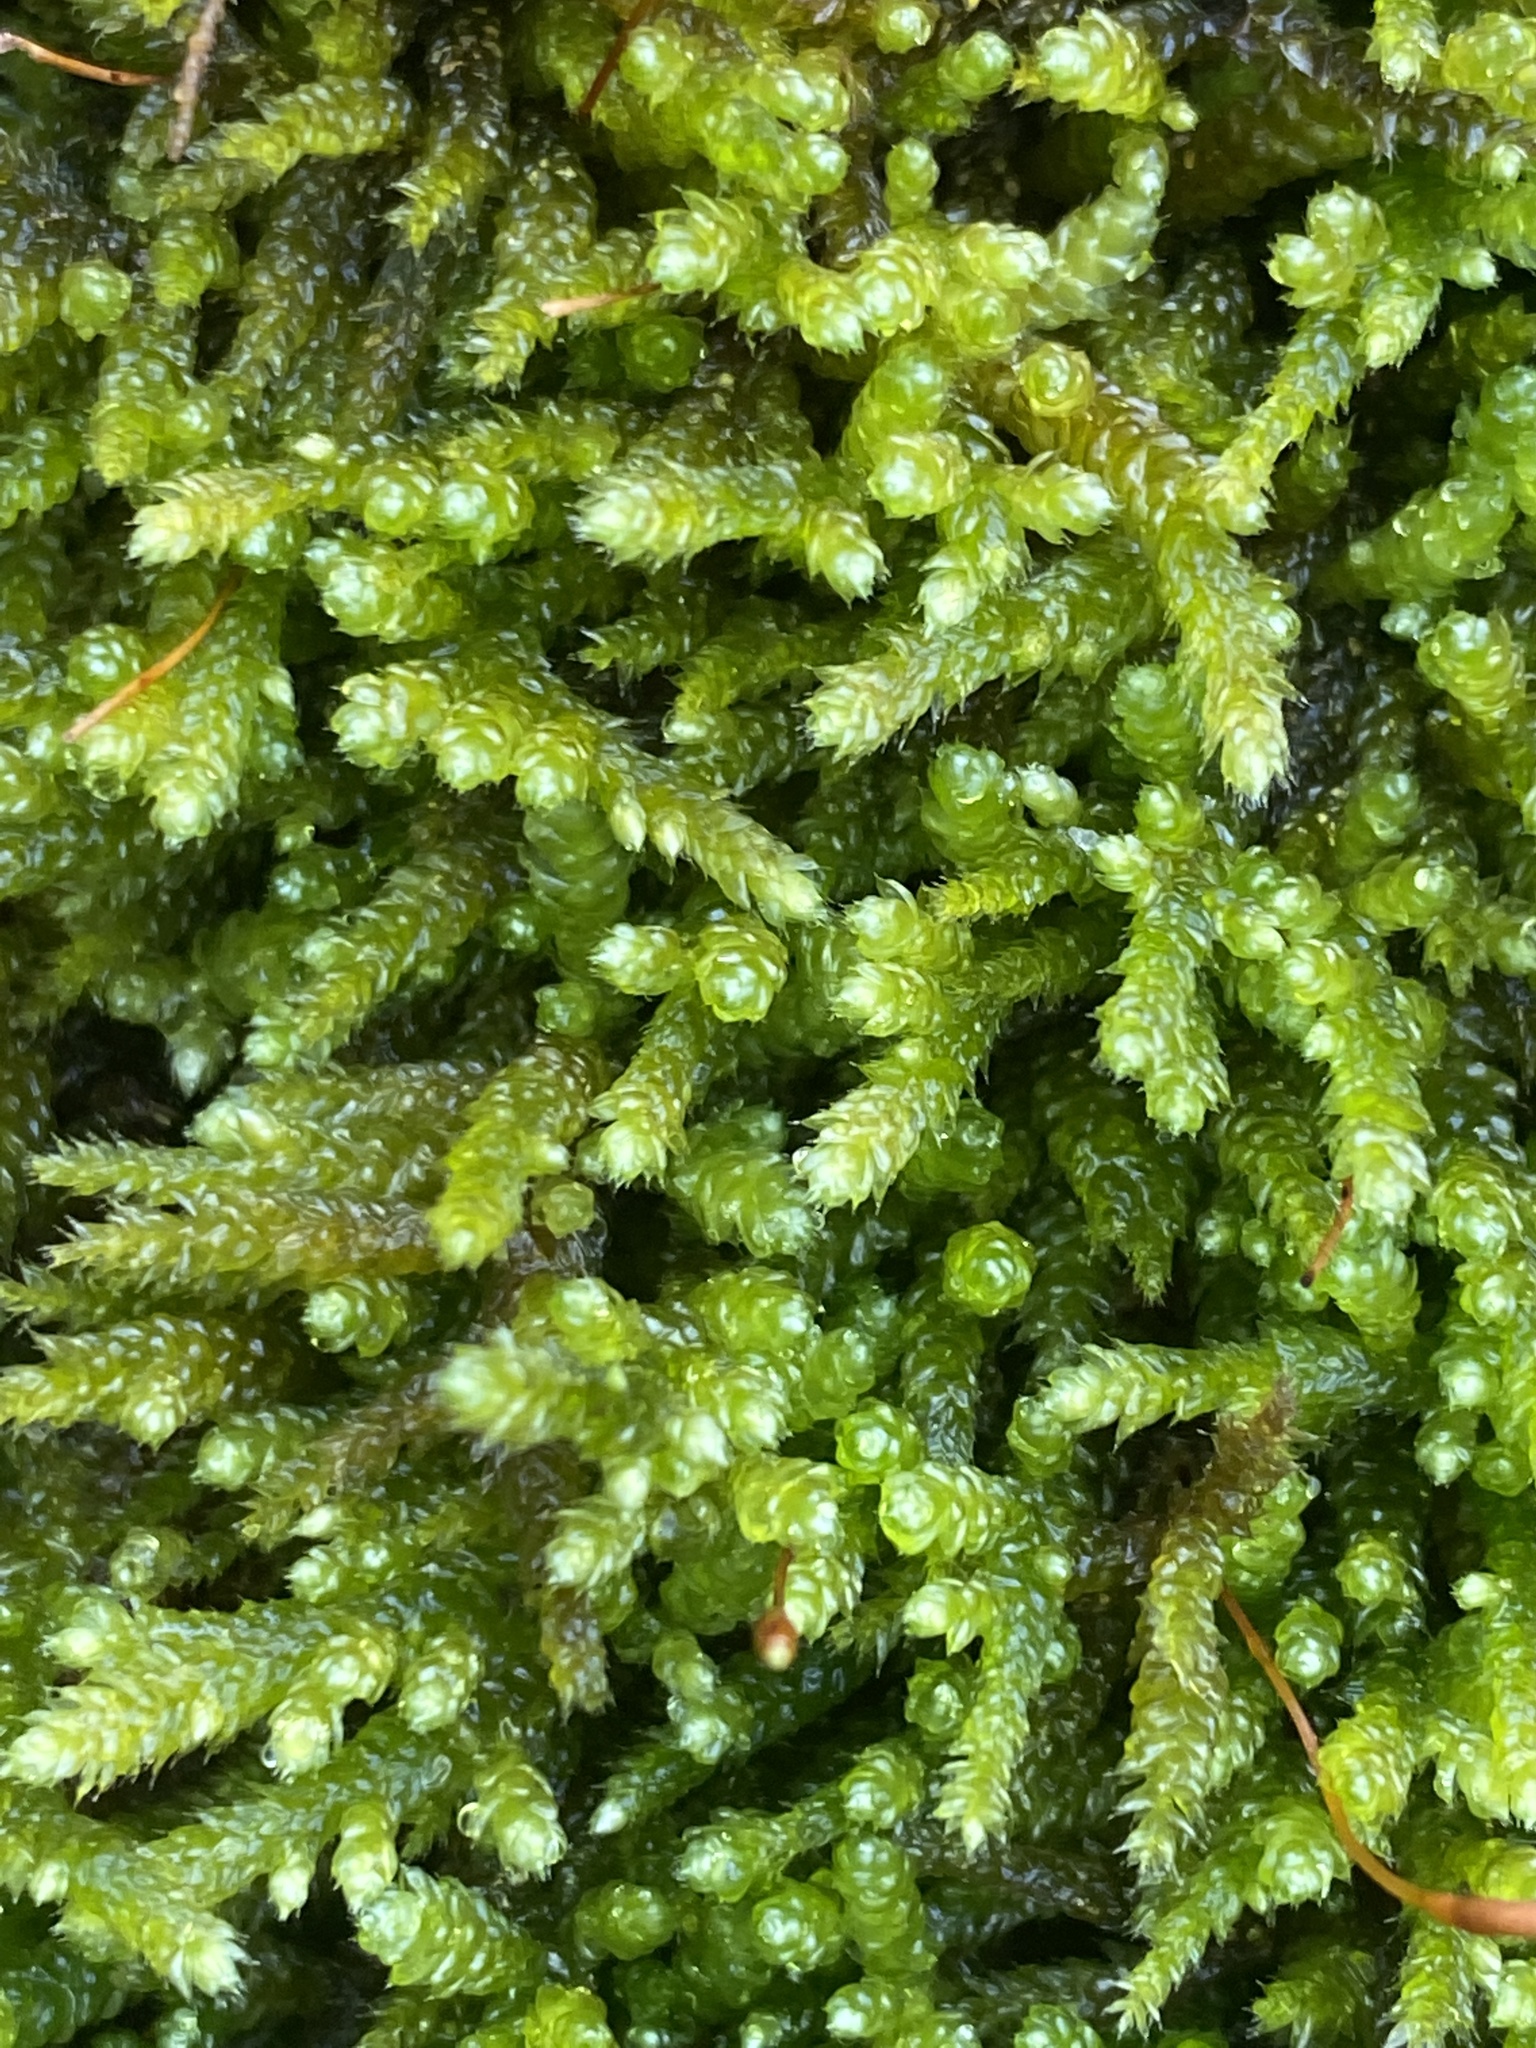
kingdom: Plantae
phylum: Bryophyta
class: Bryopsida
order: Hypnales
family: Brachytheciaceae
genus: Bryoandersonia
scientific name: Bryoandersonia illecebra
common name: Spoon-leaved moss
